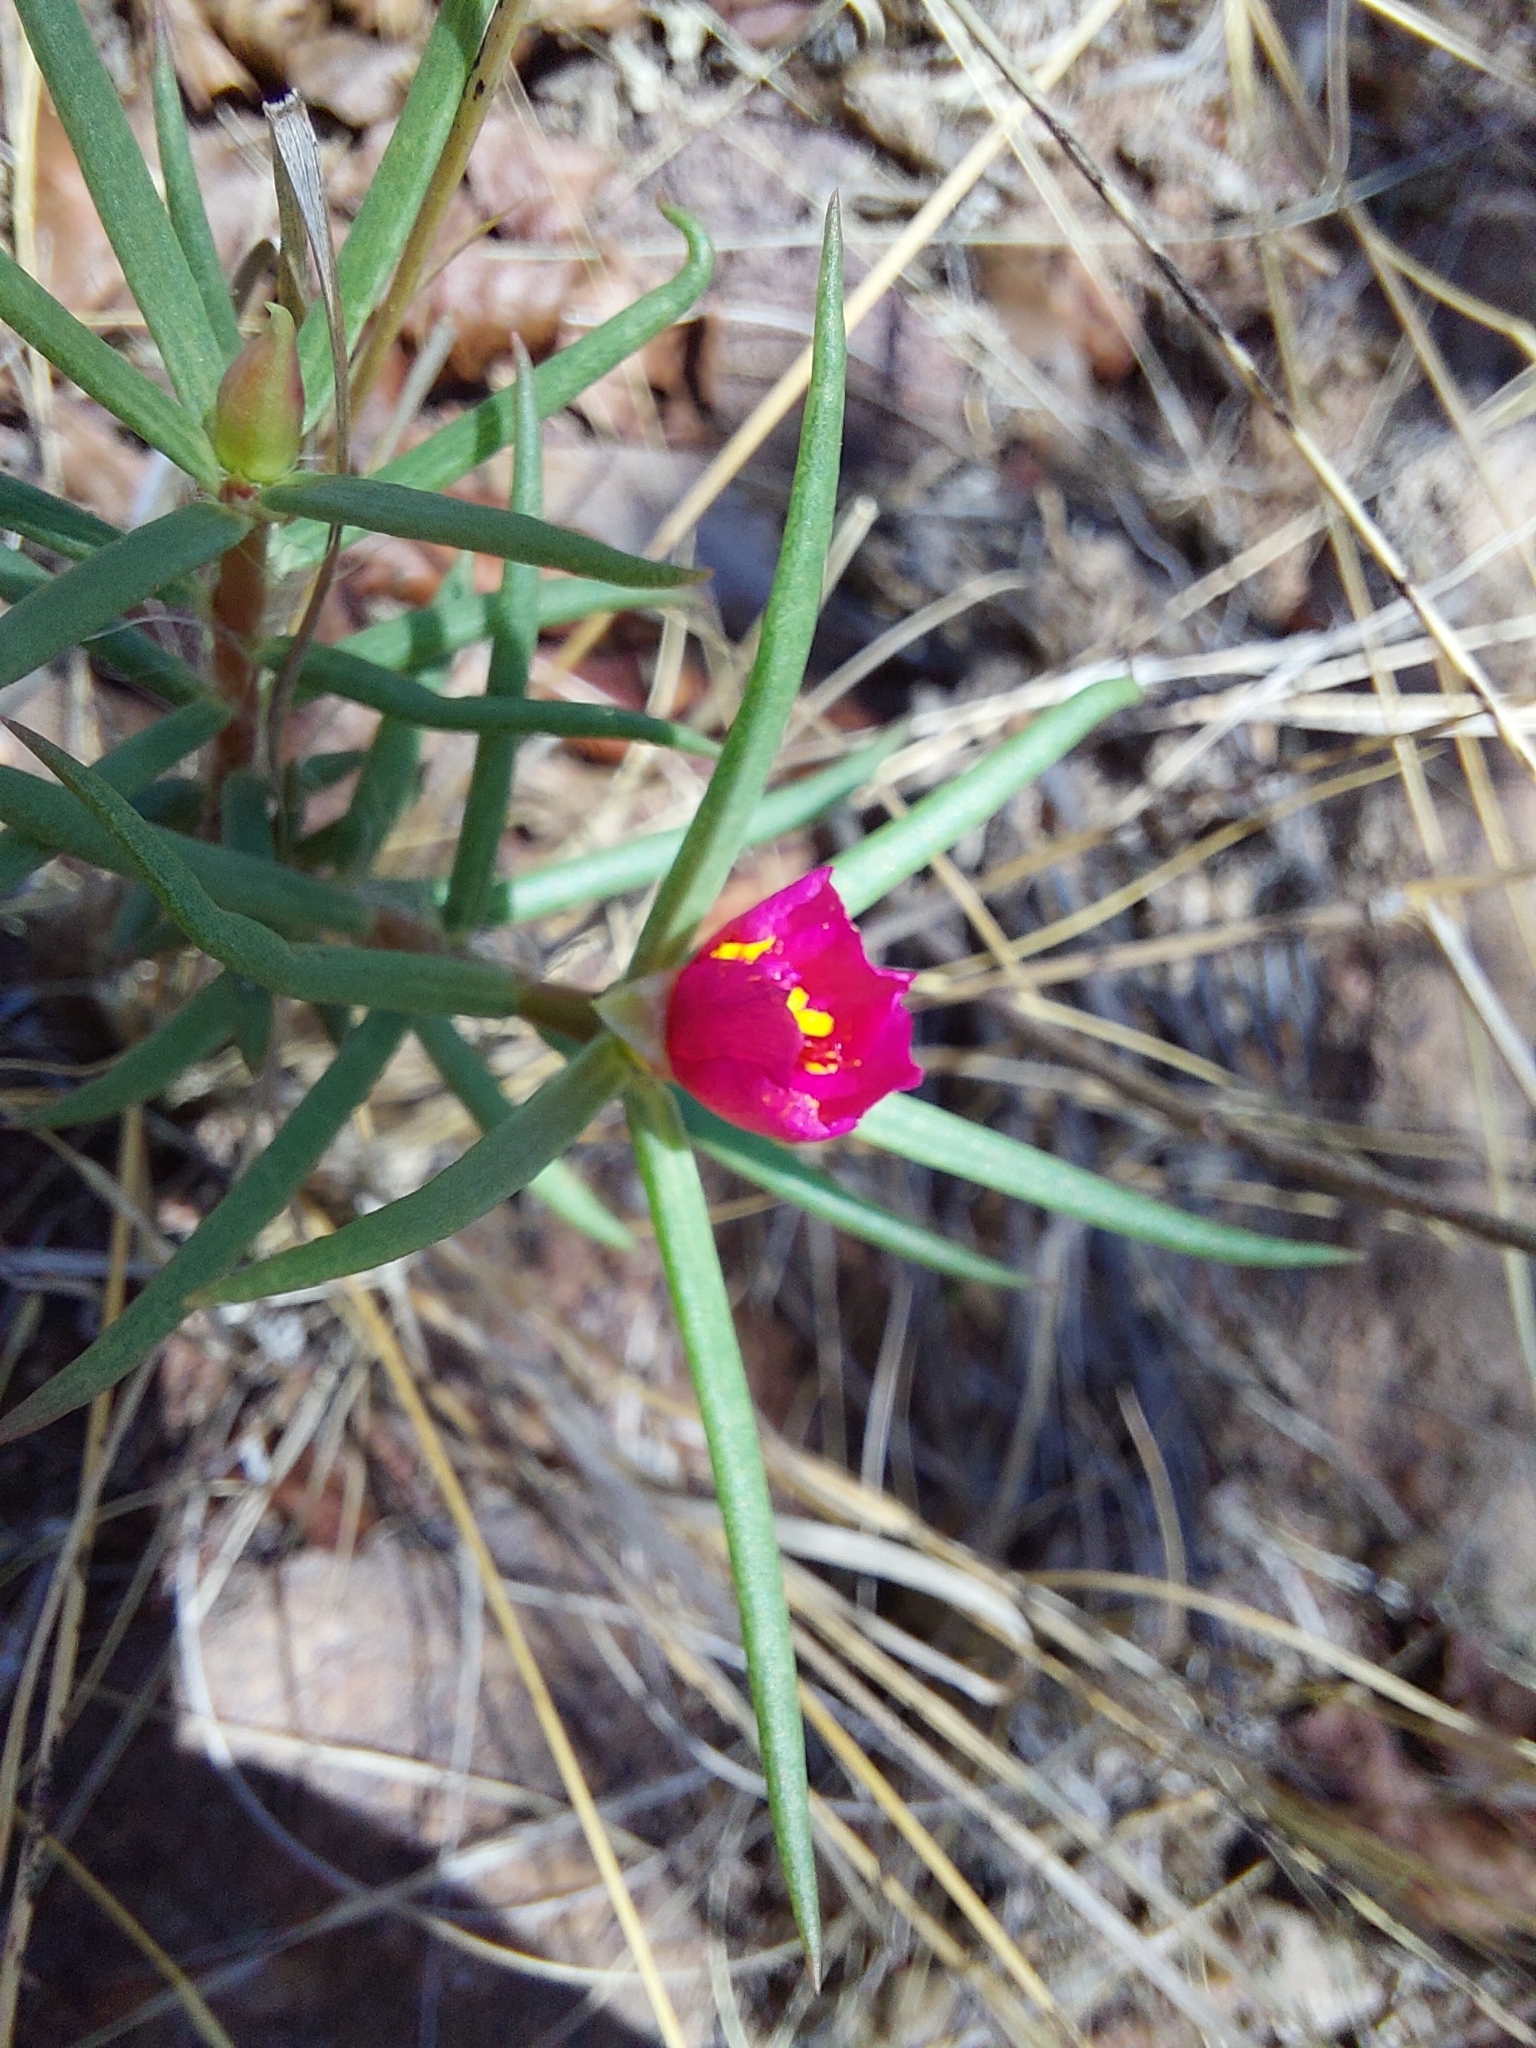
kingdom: Plantae
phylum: Tracheophyta
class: Magnoliopsida
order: Caryophyllales
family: Portulacaceae
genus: Portulaca
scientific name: Portulaca kermesina
